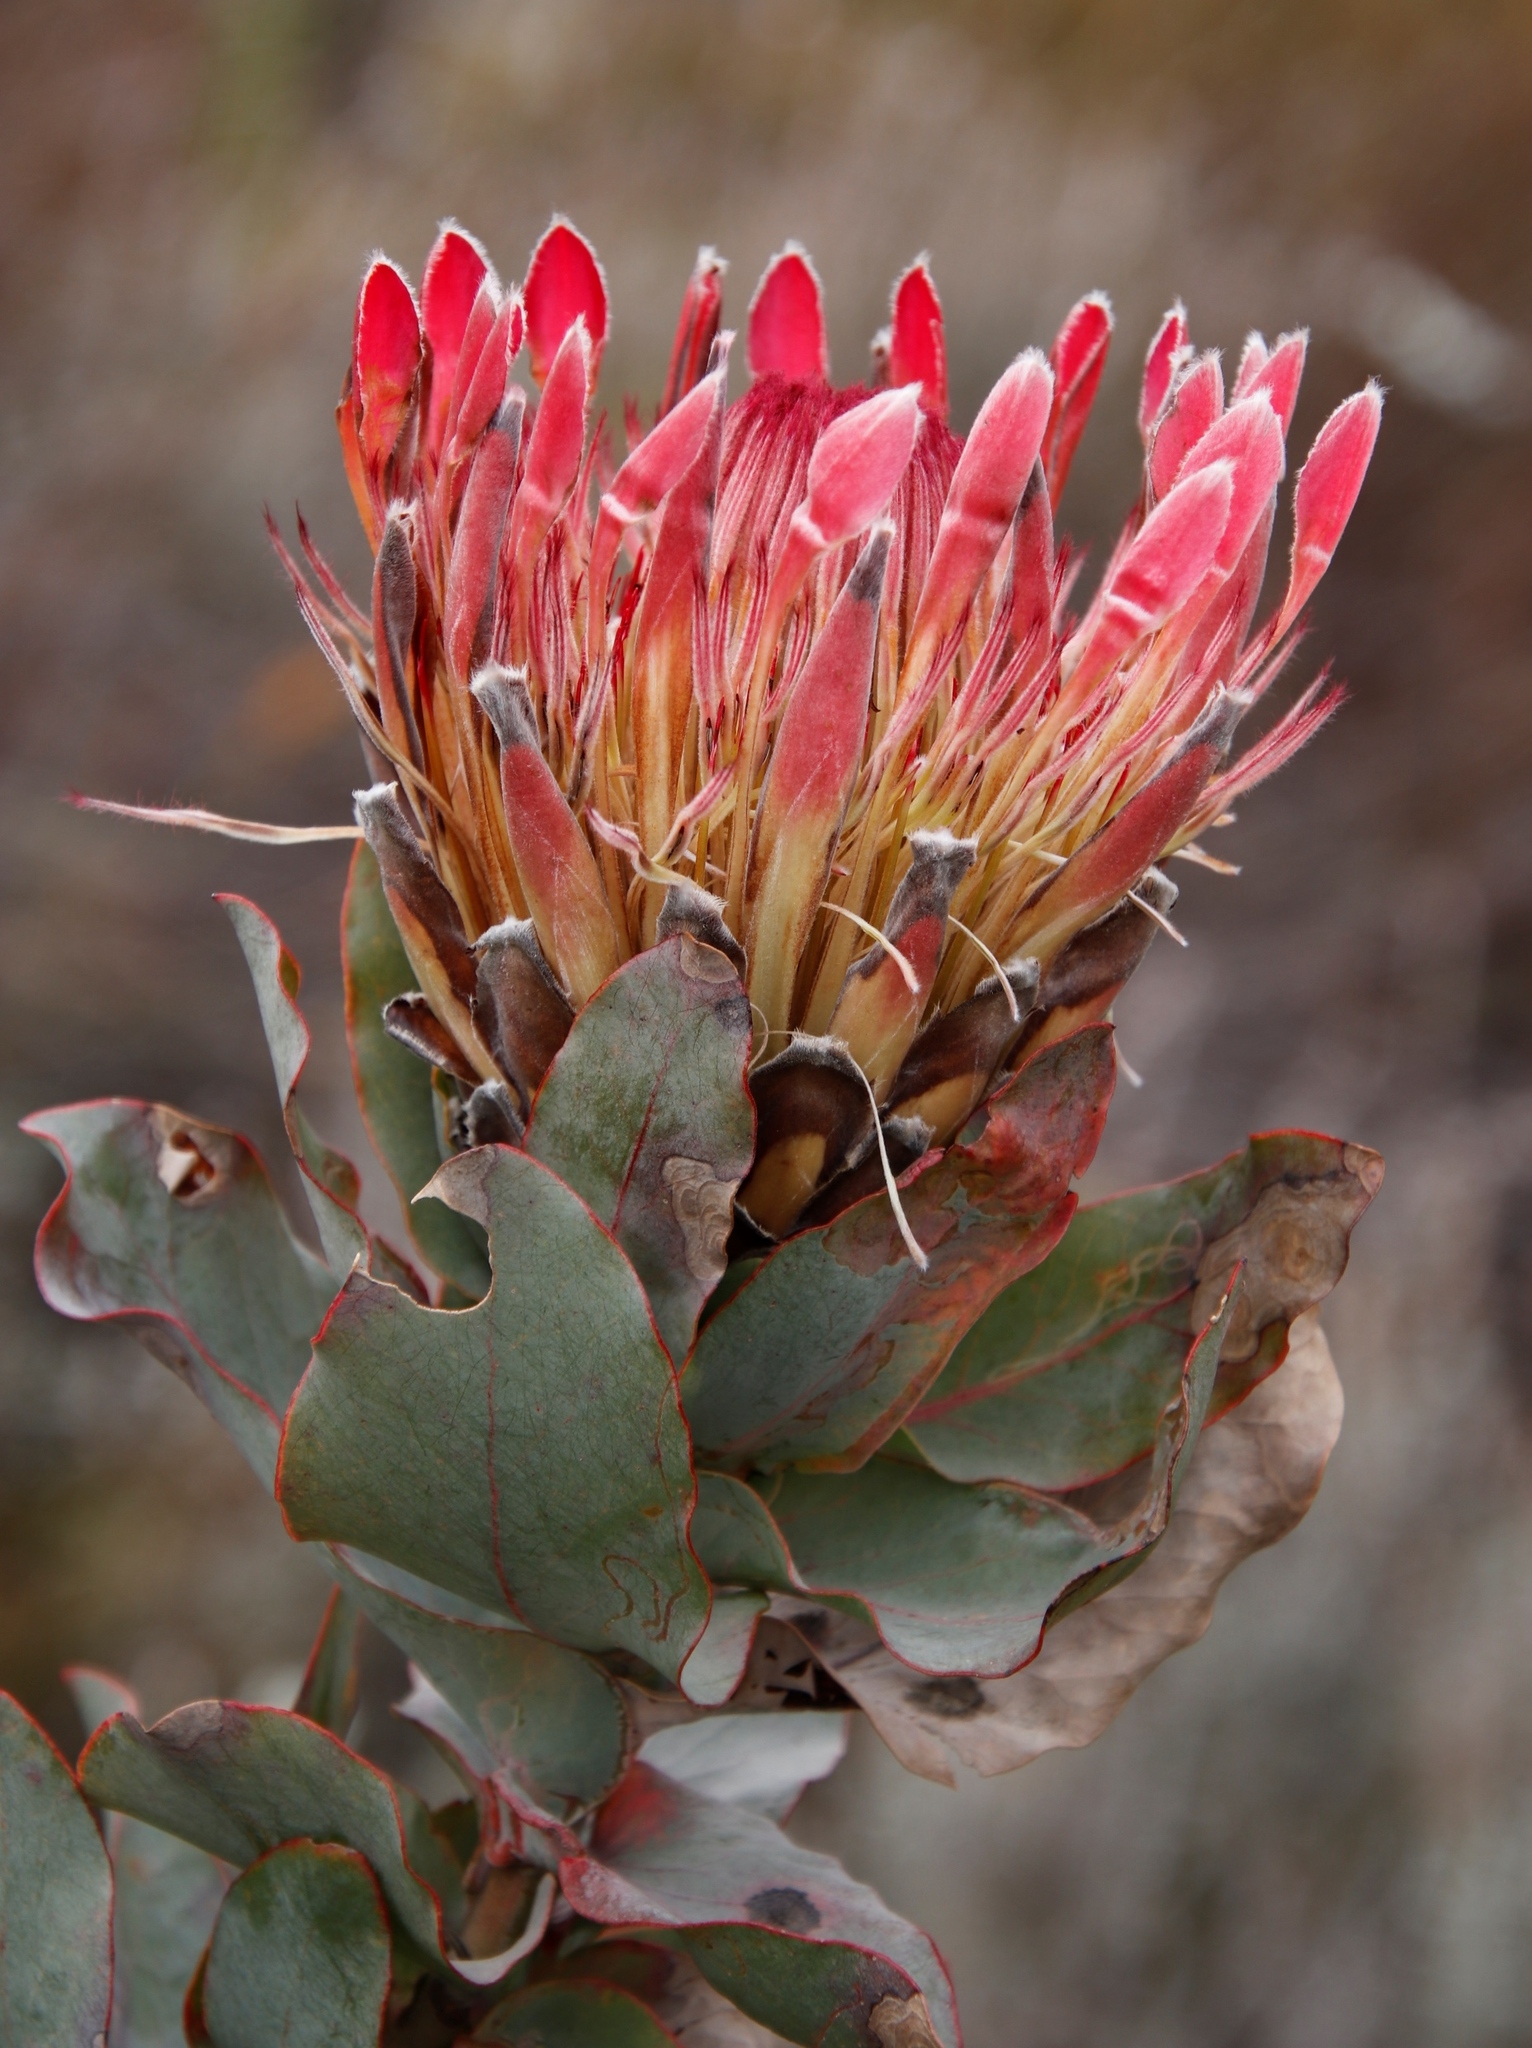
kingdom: Plantae
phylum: Tracheophyta
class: Magnoliopsida
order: Proteales
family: Proteaceae
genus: Protea
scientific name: Protea eximia
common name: Broad-leaved sugarbush
